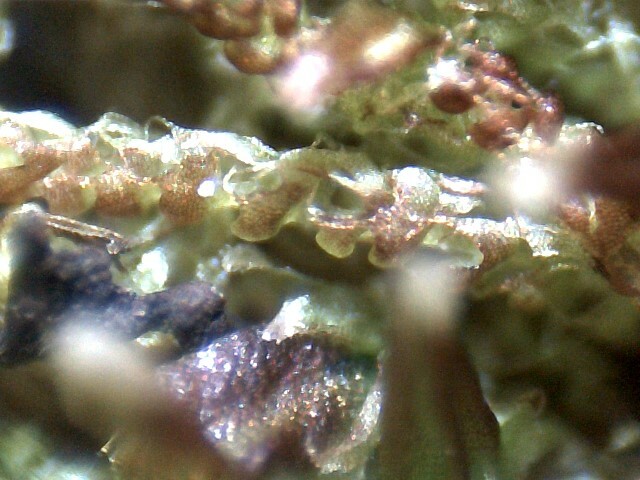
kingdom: Plantae
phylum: Marchantiophyta
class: Jungermanniopsida
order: Jungermanniales
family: Cephaloziaceae
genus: Nowellia
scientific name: Nowellia curvifolia
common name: Wood rustwort
